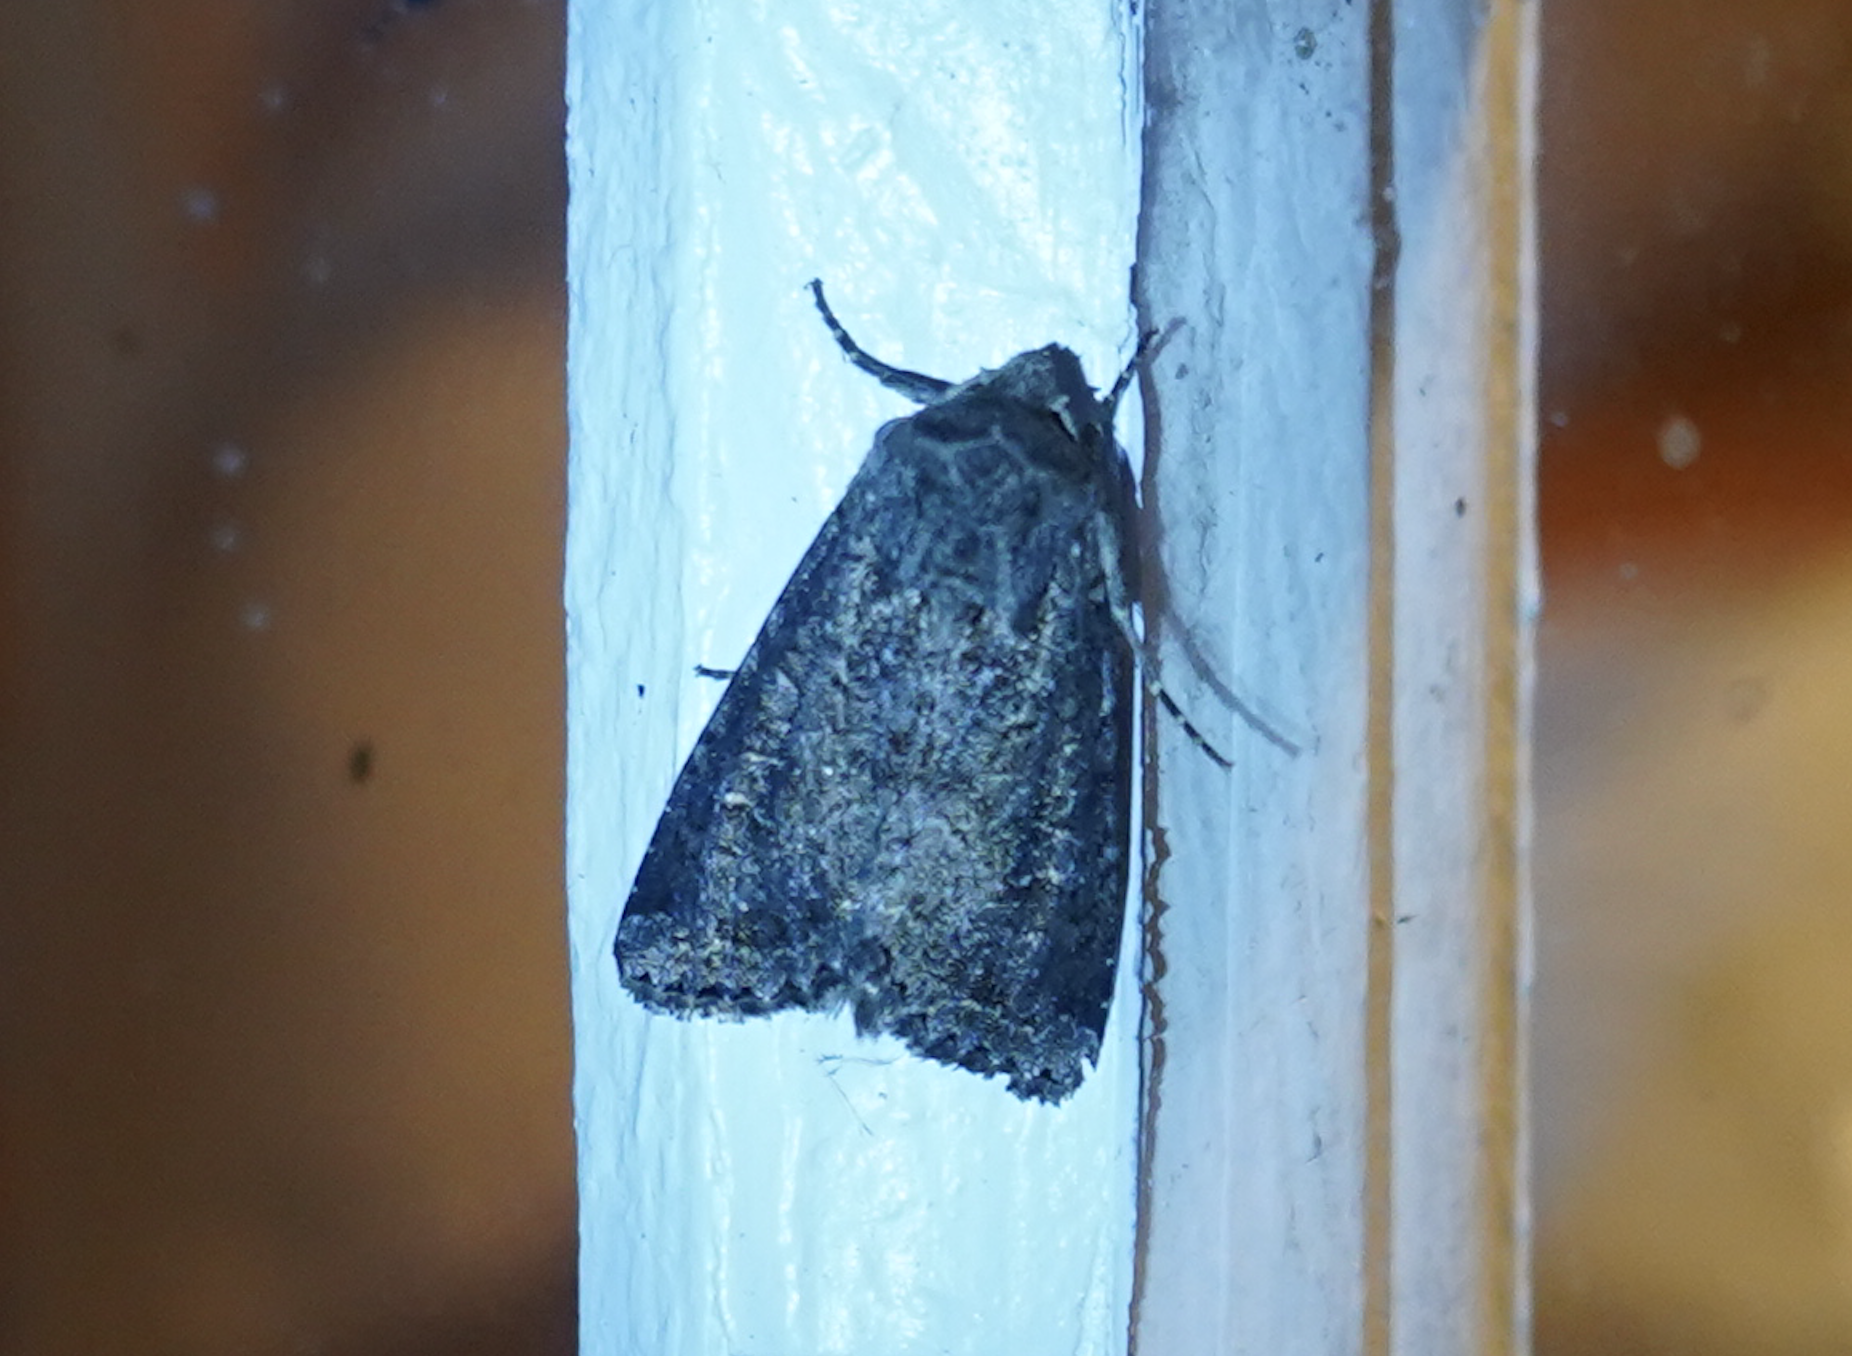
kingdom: Animalia
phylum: Arthropoda
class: Insecta
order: Lepidoptera
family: Noctuidae
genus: Apamea
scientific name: Apamea devastator
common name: Glassy cutworm
